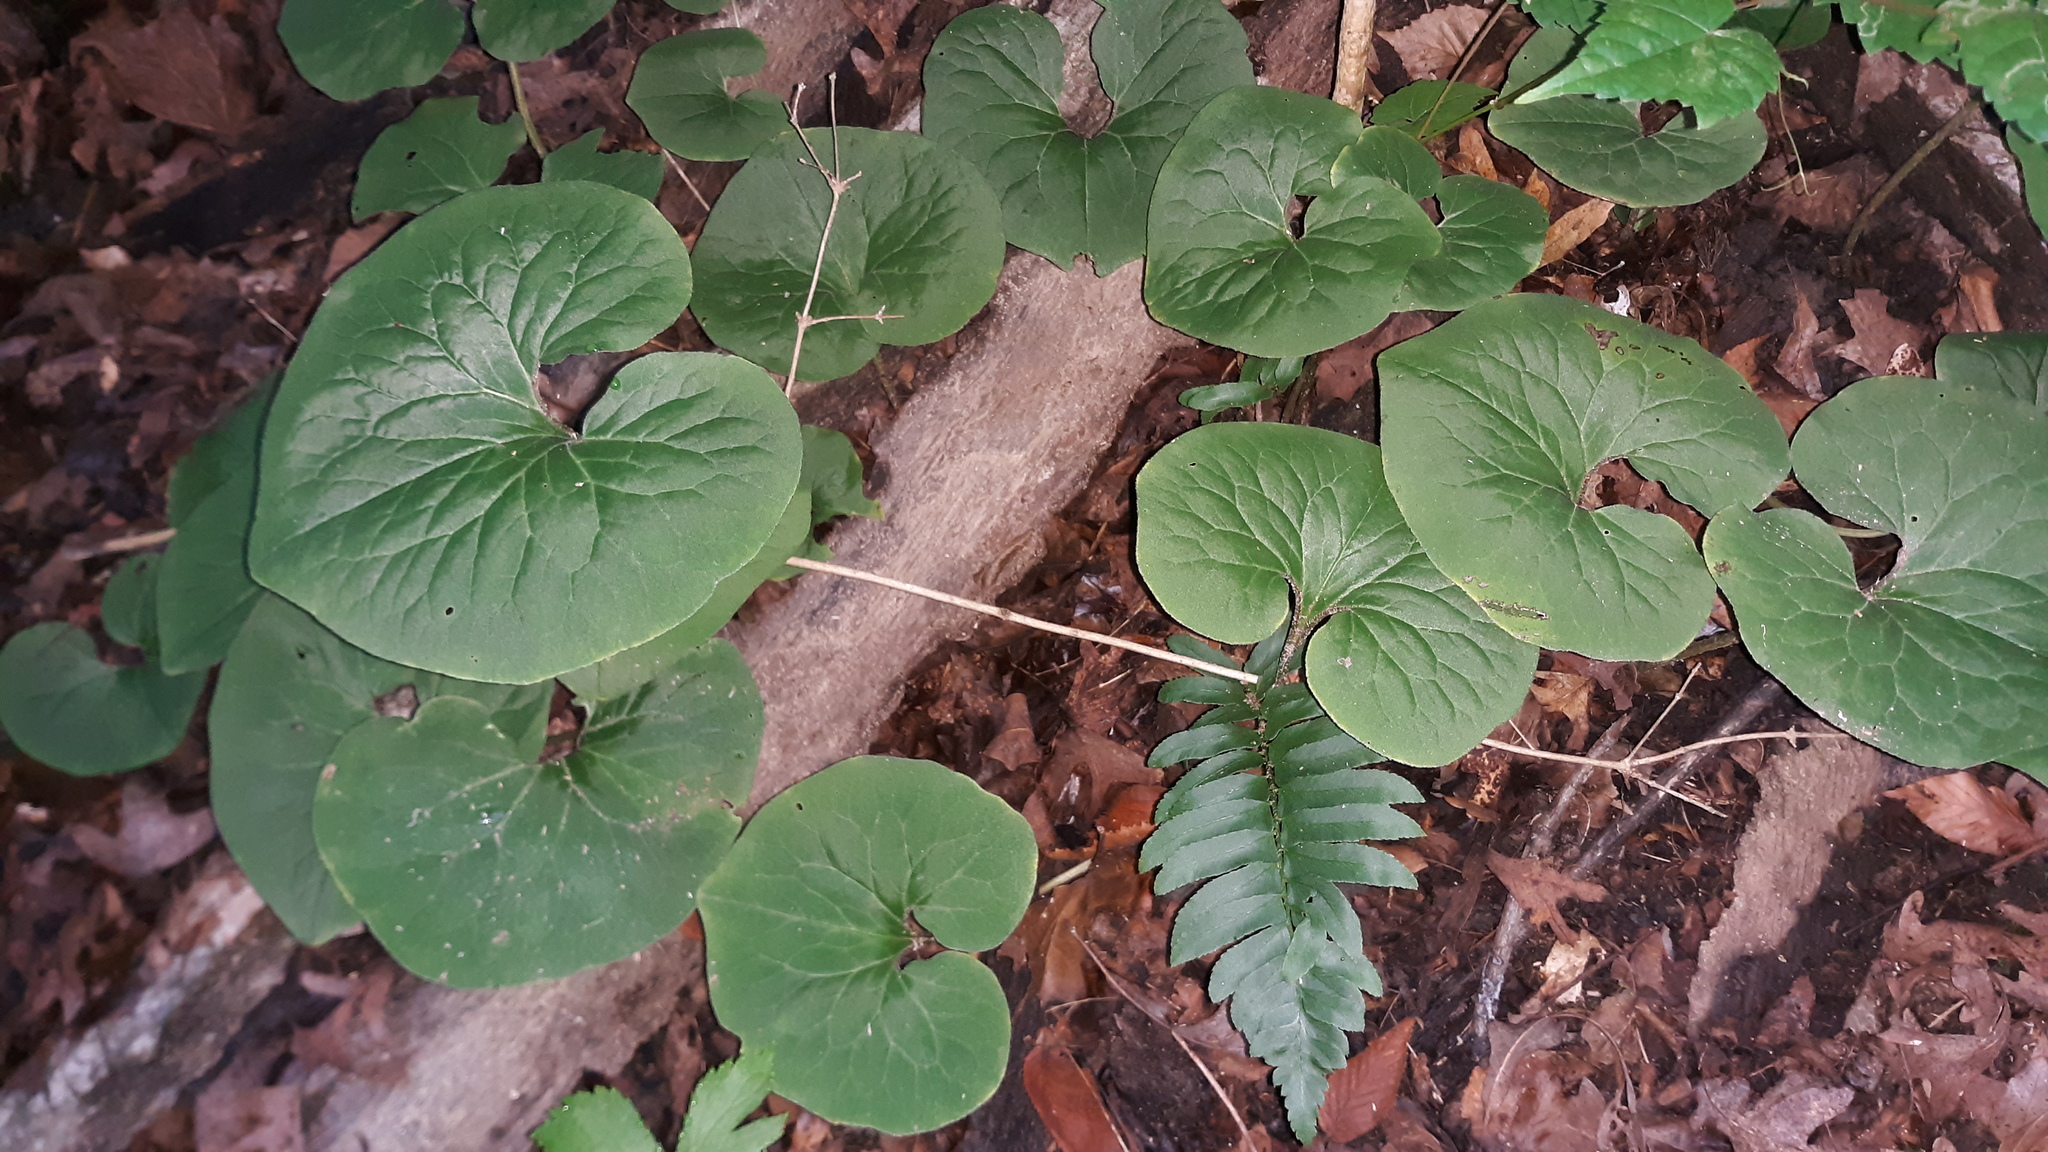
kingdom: Plantae
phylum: Tracheophyta
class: Magnoliopsida
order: Piperales
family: Aristolochiaceae
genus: Asarum
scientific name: Asarum canadense
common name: Wild ginger
